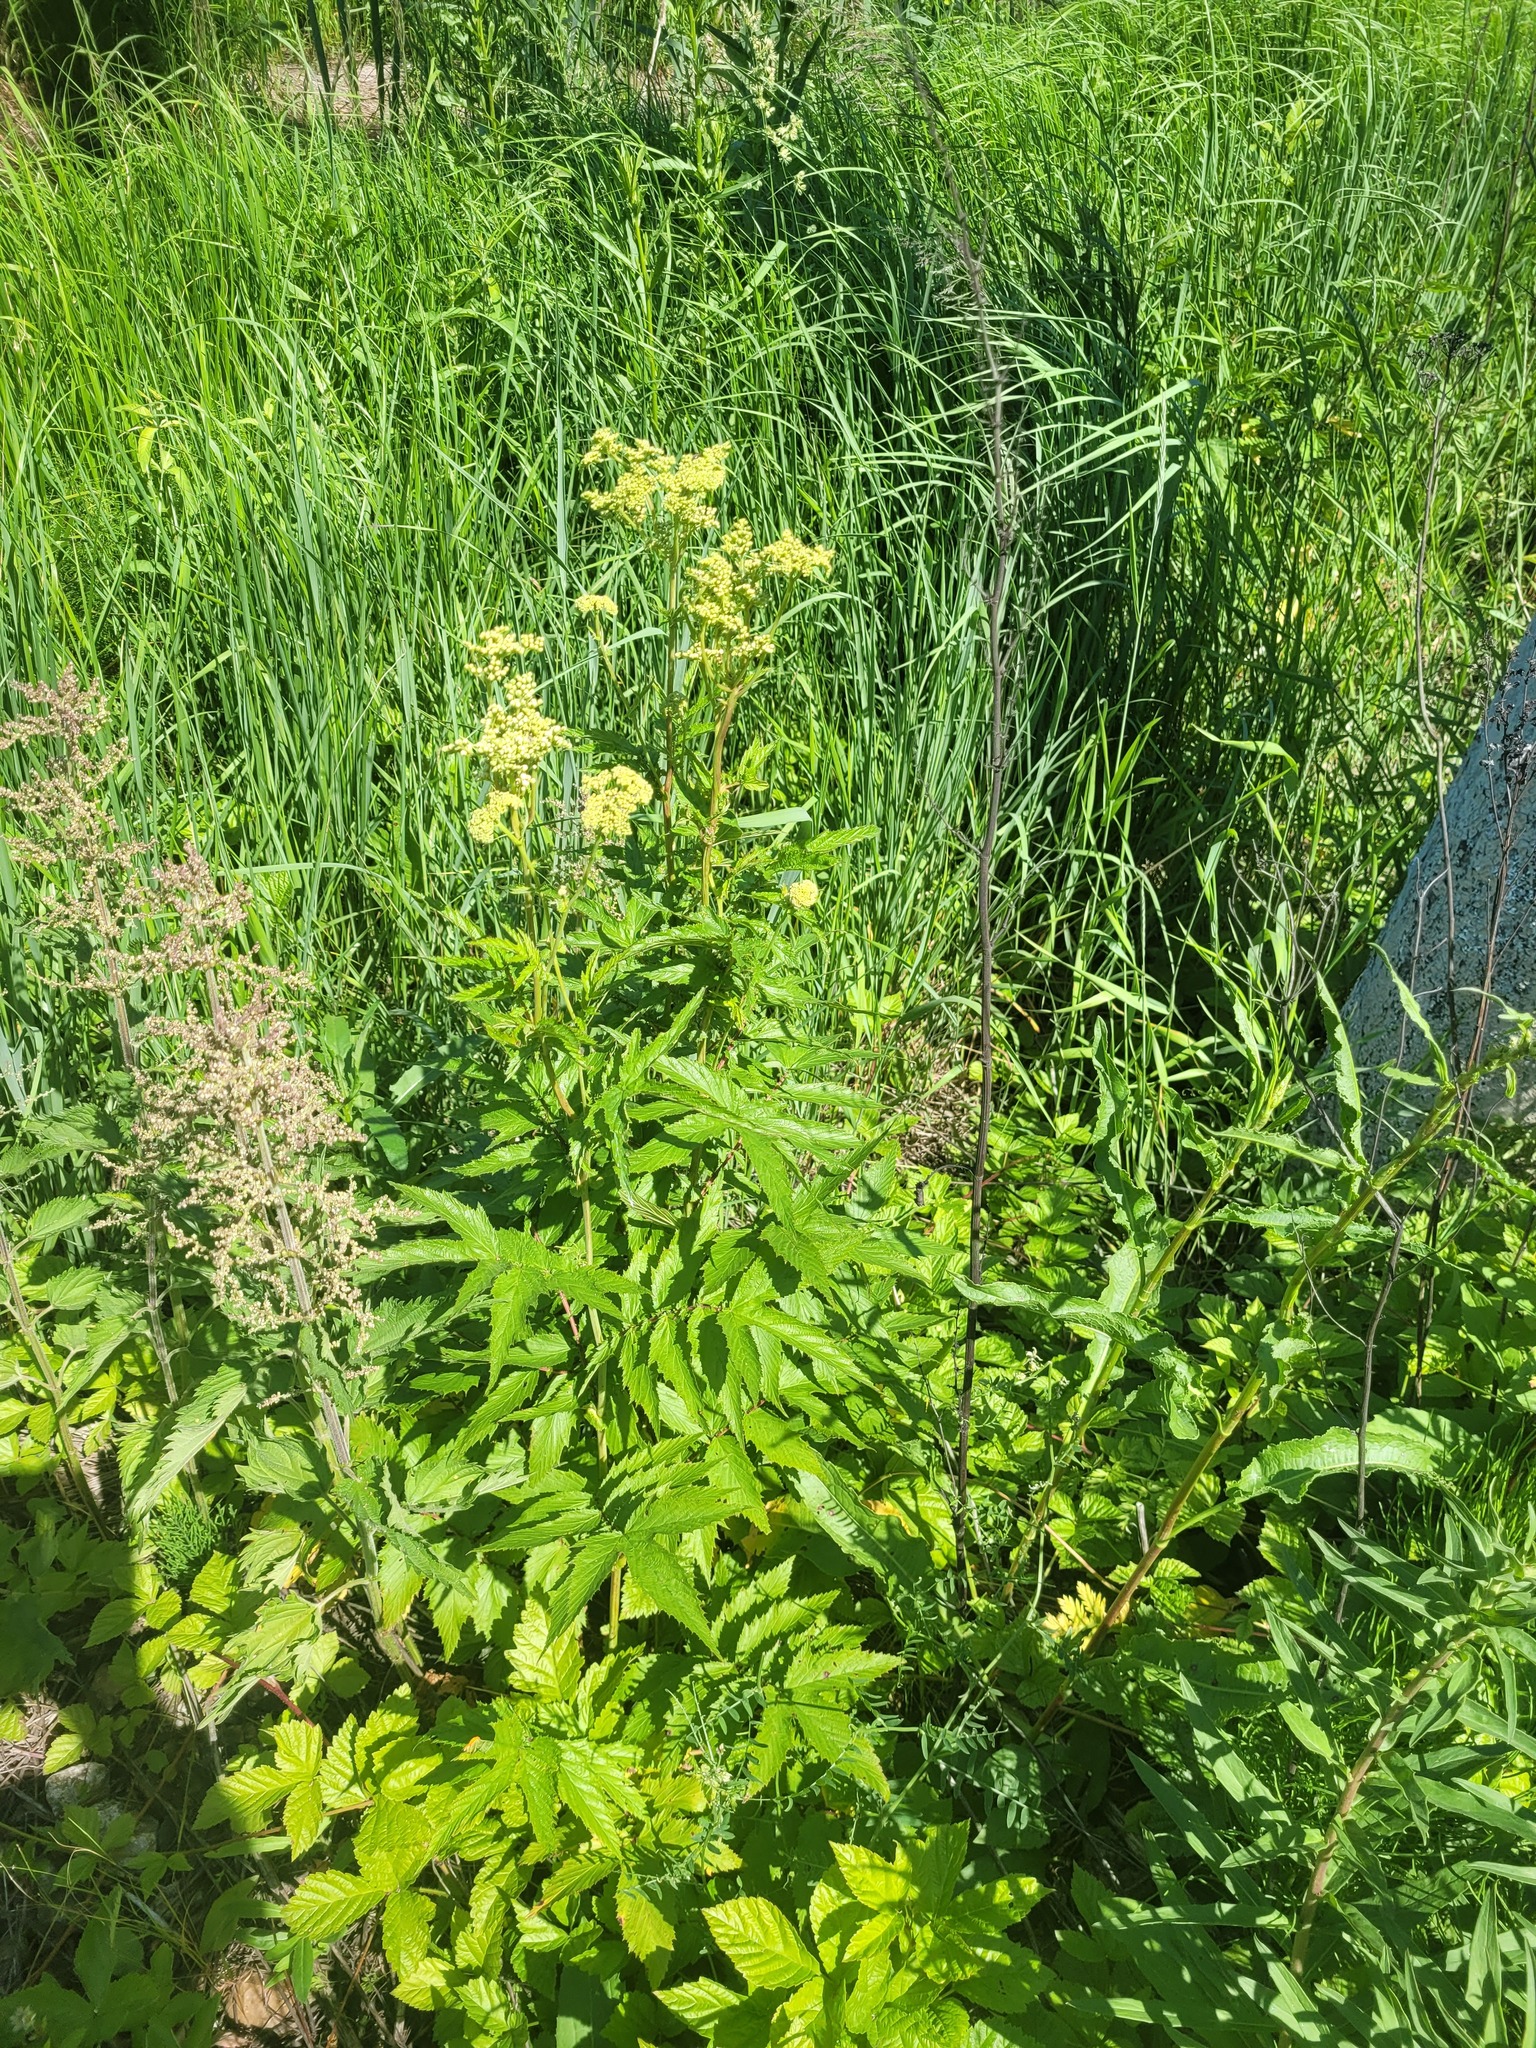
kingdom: Plantae
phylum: Tracheophyta
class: Magnoliopsida
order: Rosales
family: Rosaceae
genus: Filipendula
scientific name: Filipendula ulmaria
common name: Meadowsweet
